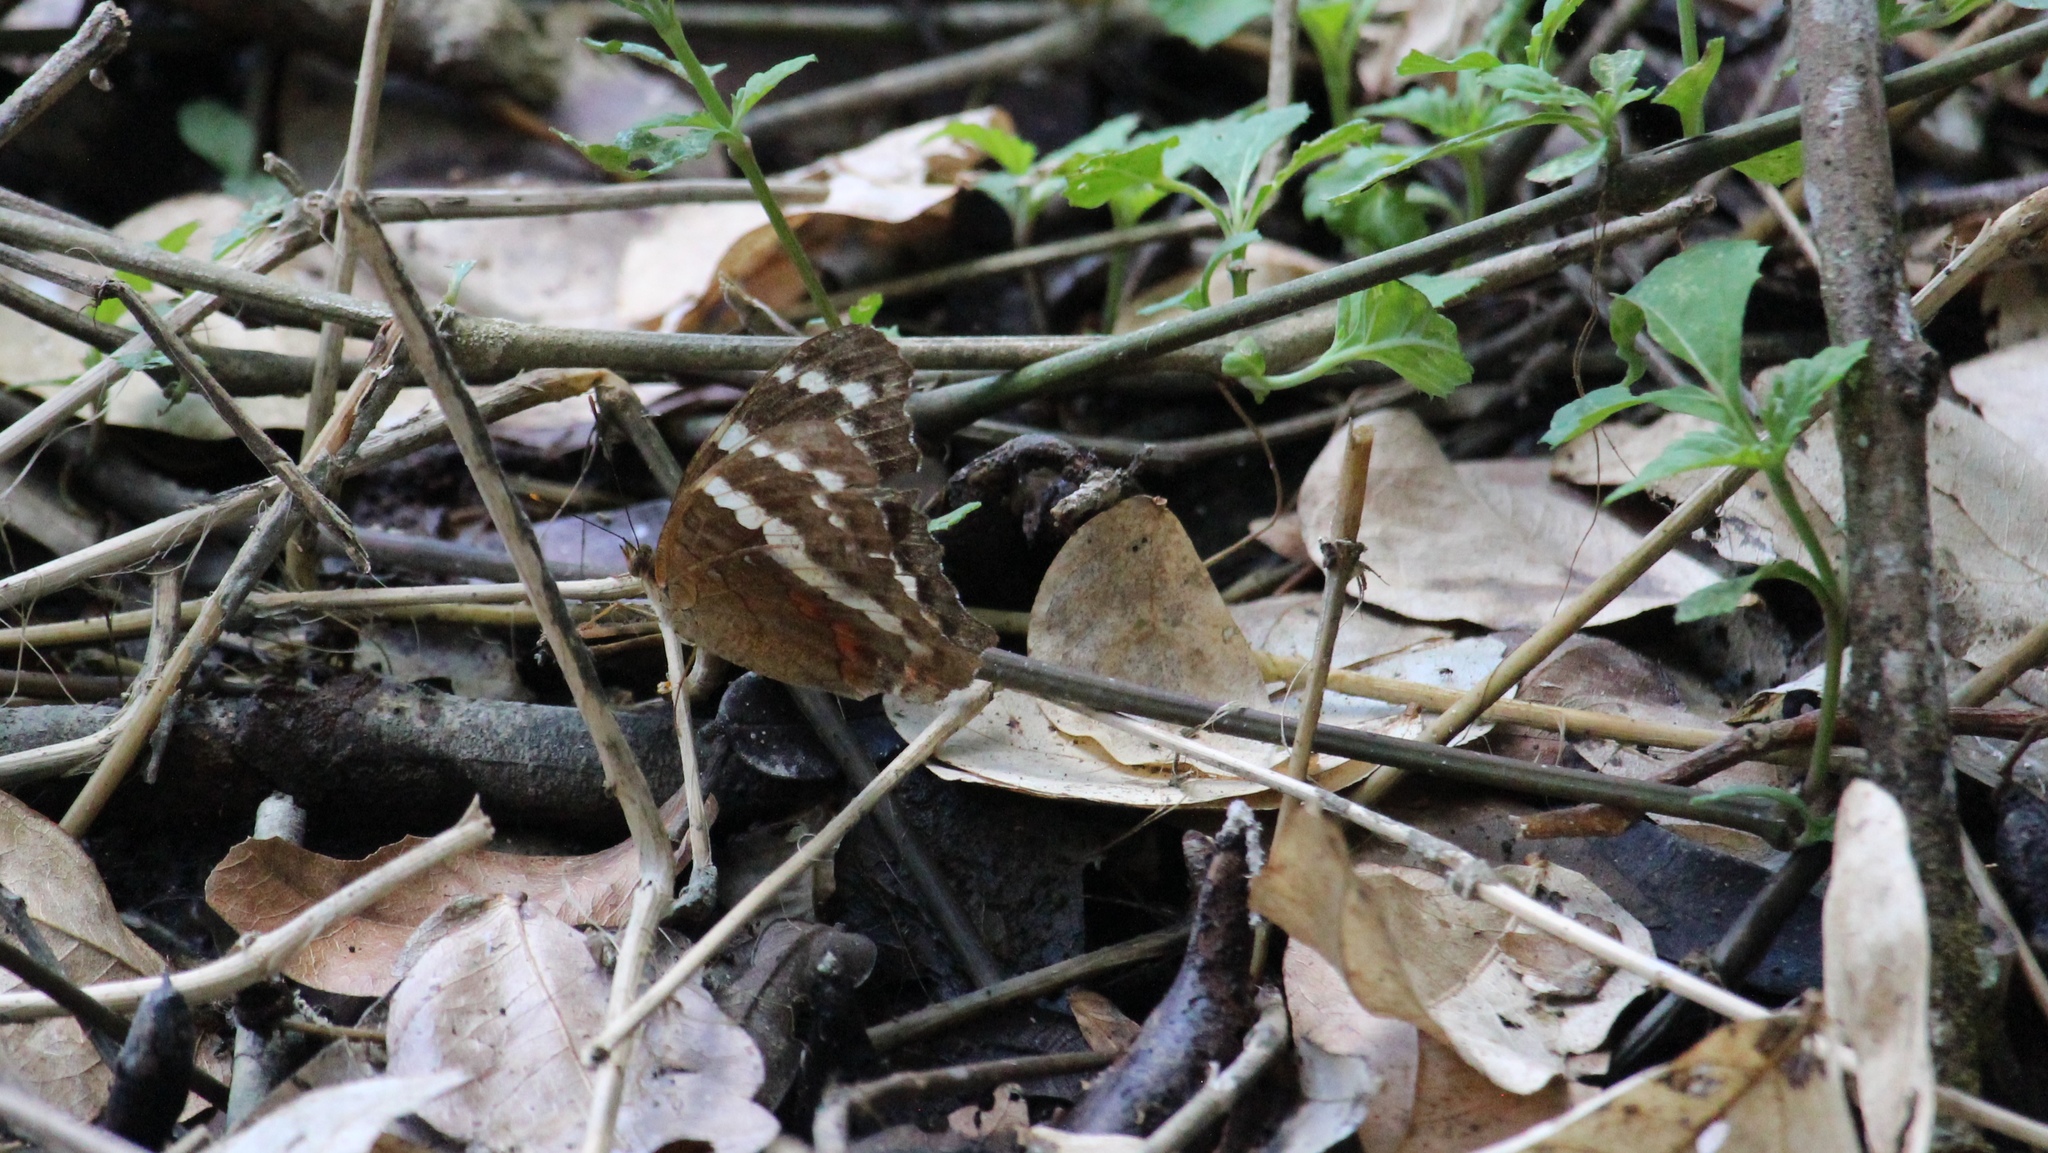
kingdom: Animalia
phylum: Arthropoda
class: Insecta
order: Lepidoptera
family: Nymphalidae
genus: Anartia
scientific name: Anartia fatima
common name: Banded peacock
